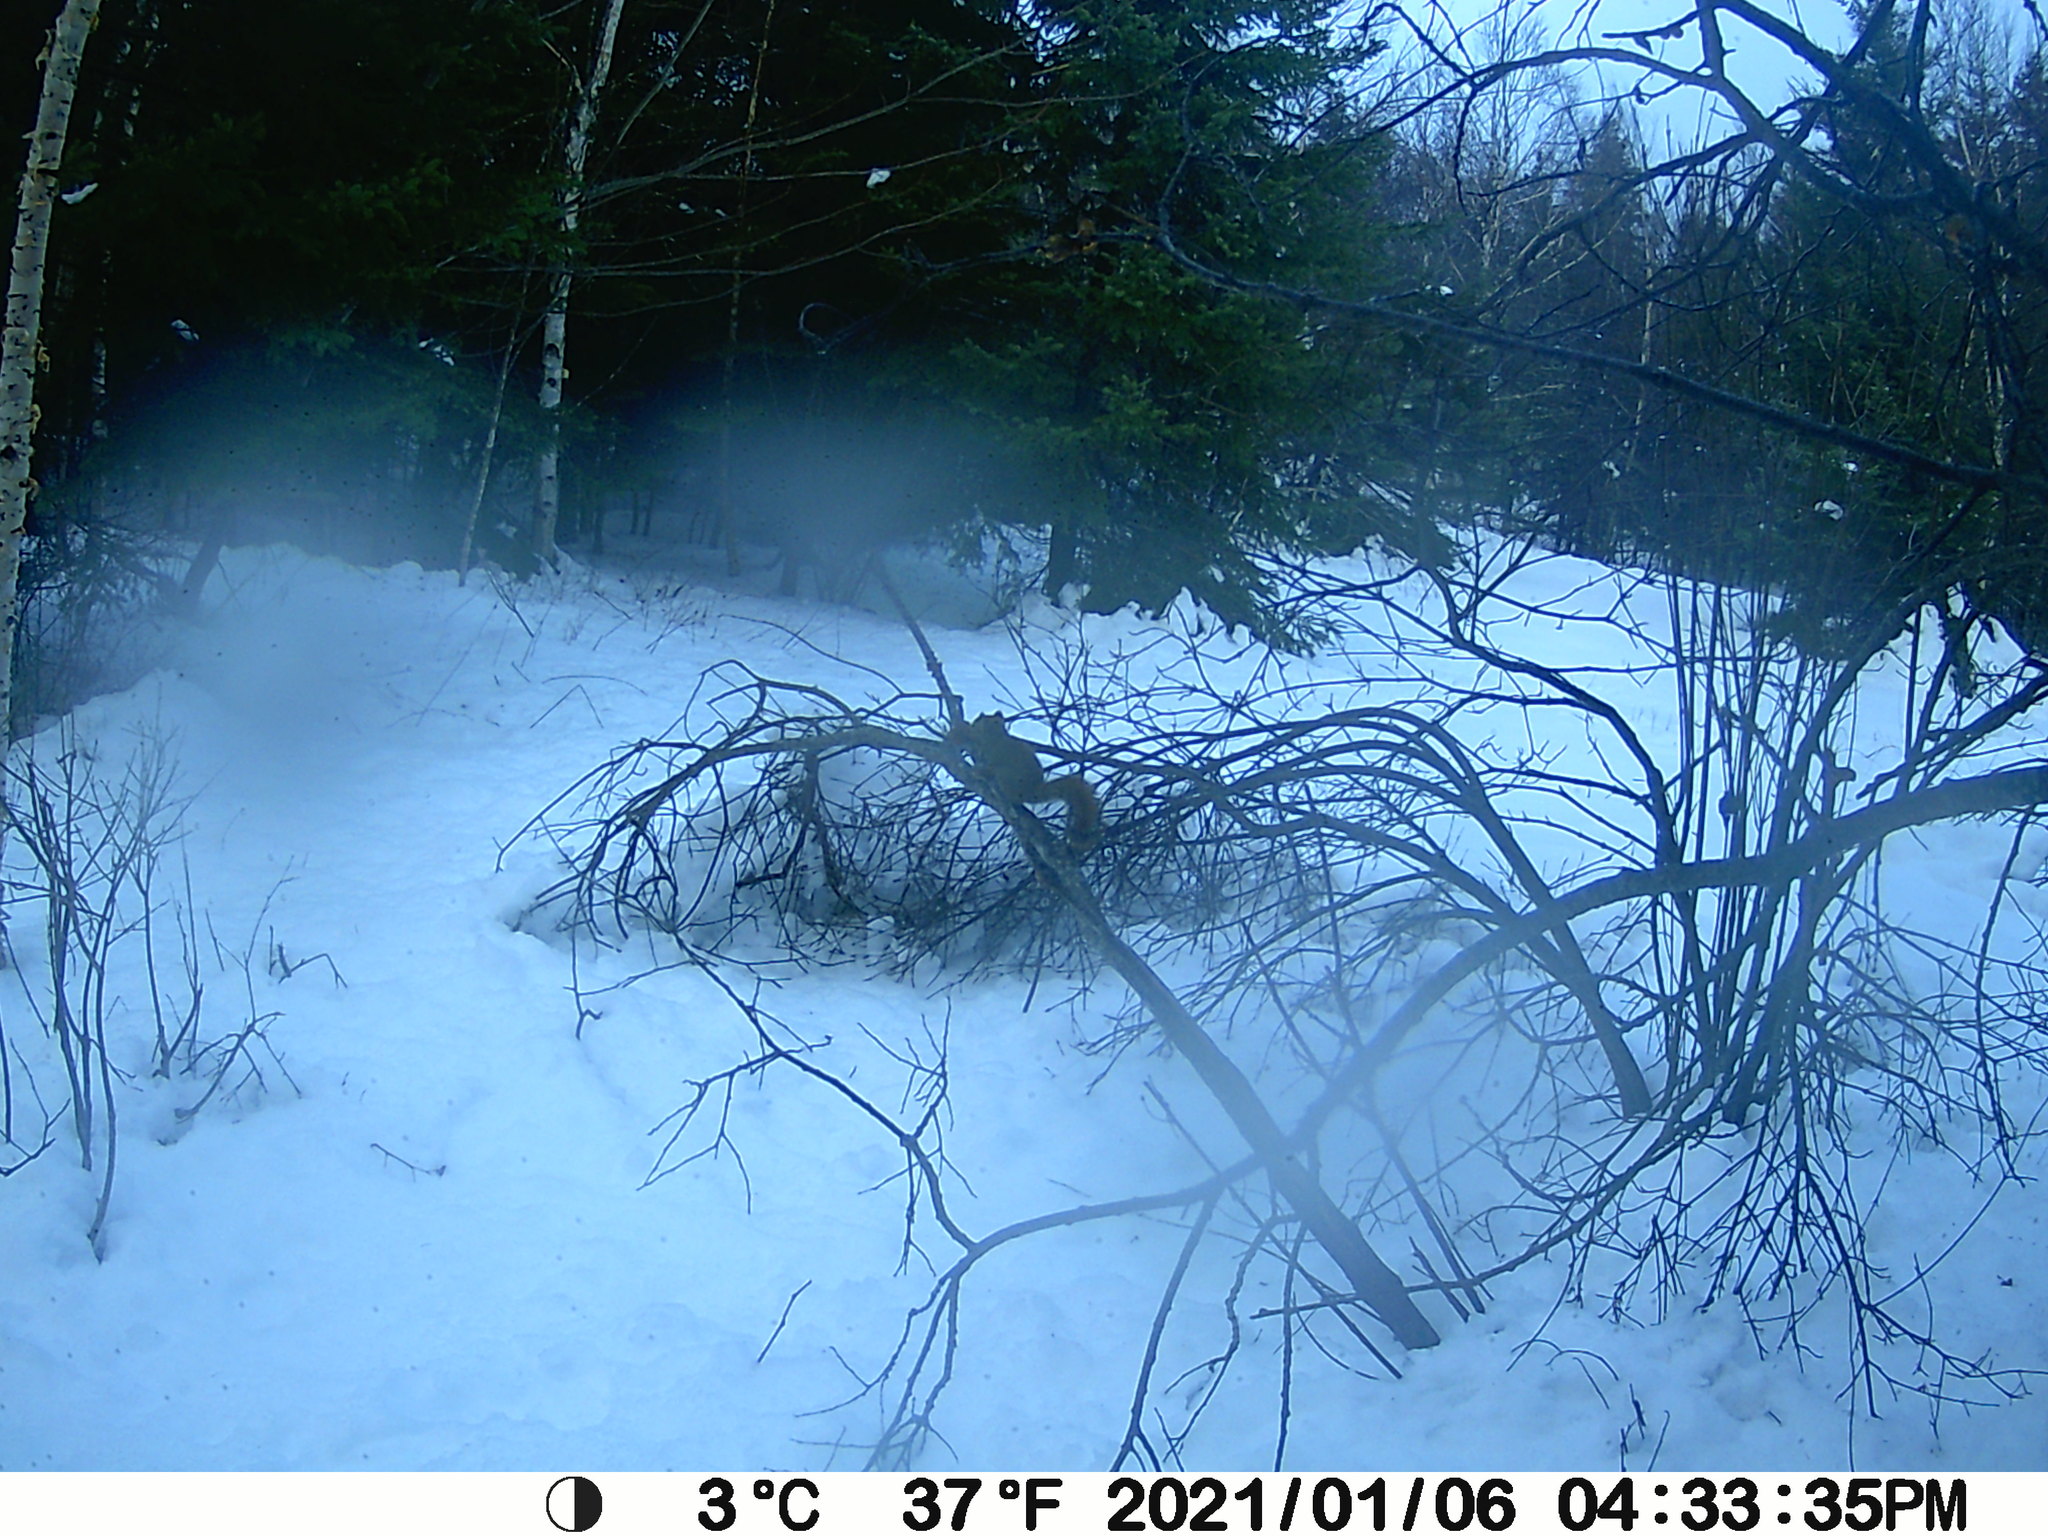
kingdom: Animalia
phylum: Chordata
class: Mammalia
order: Rodentia
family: Sciuridae
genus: Tamiasciurus
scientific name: Tamiasciurus hudsonicus
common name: Red squirrel
